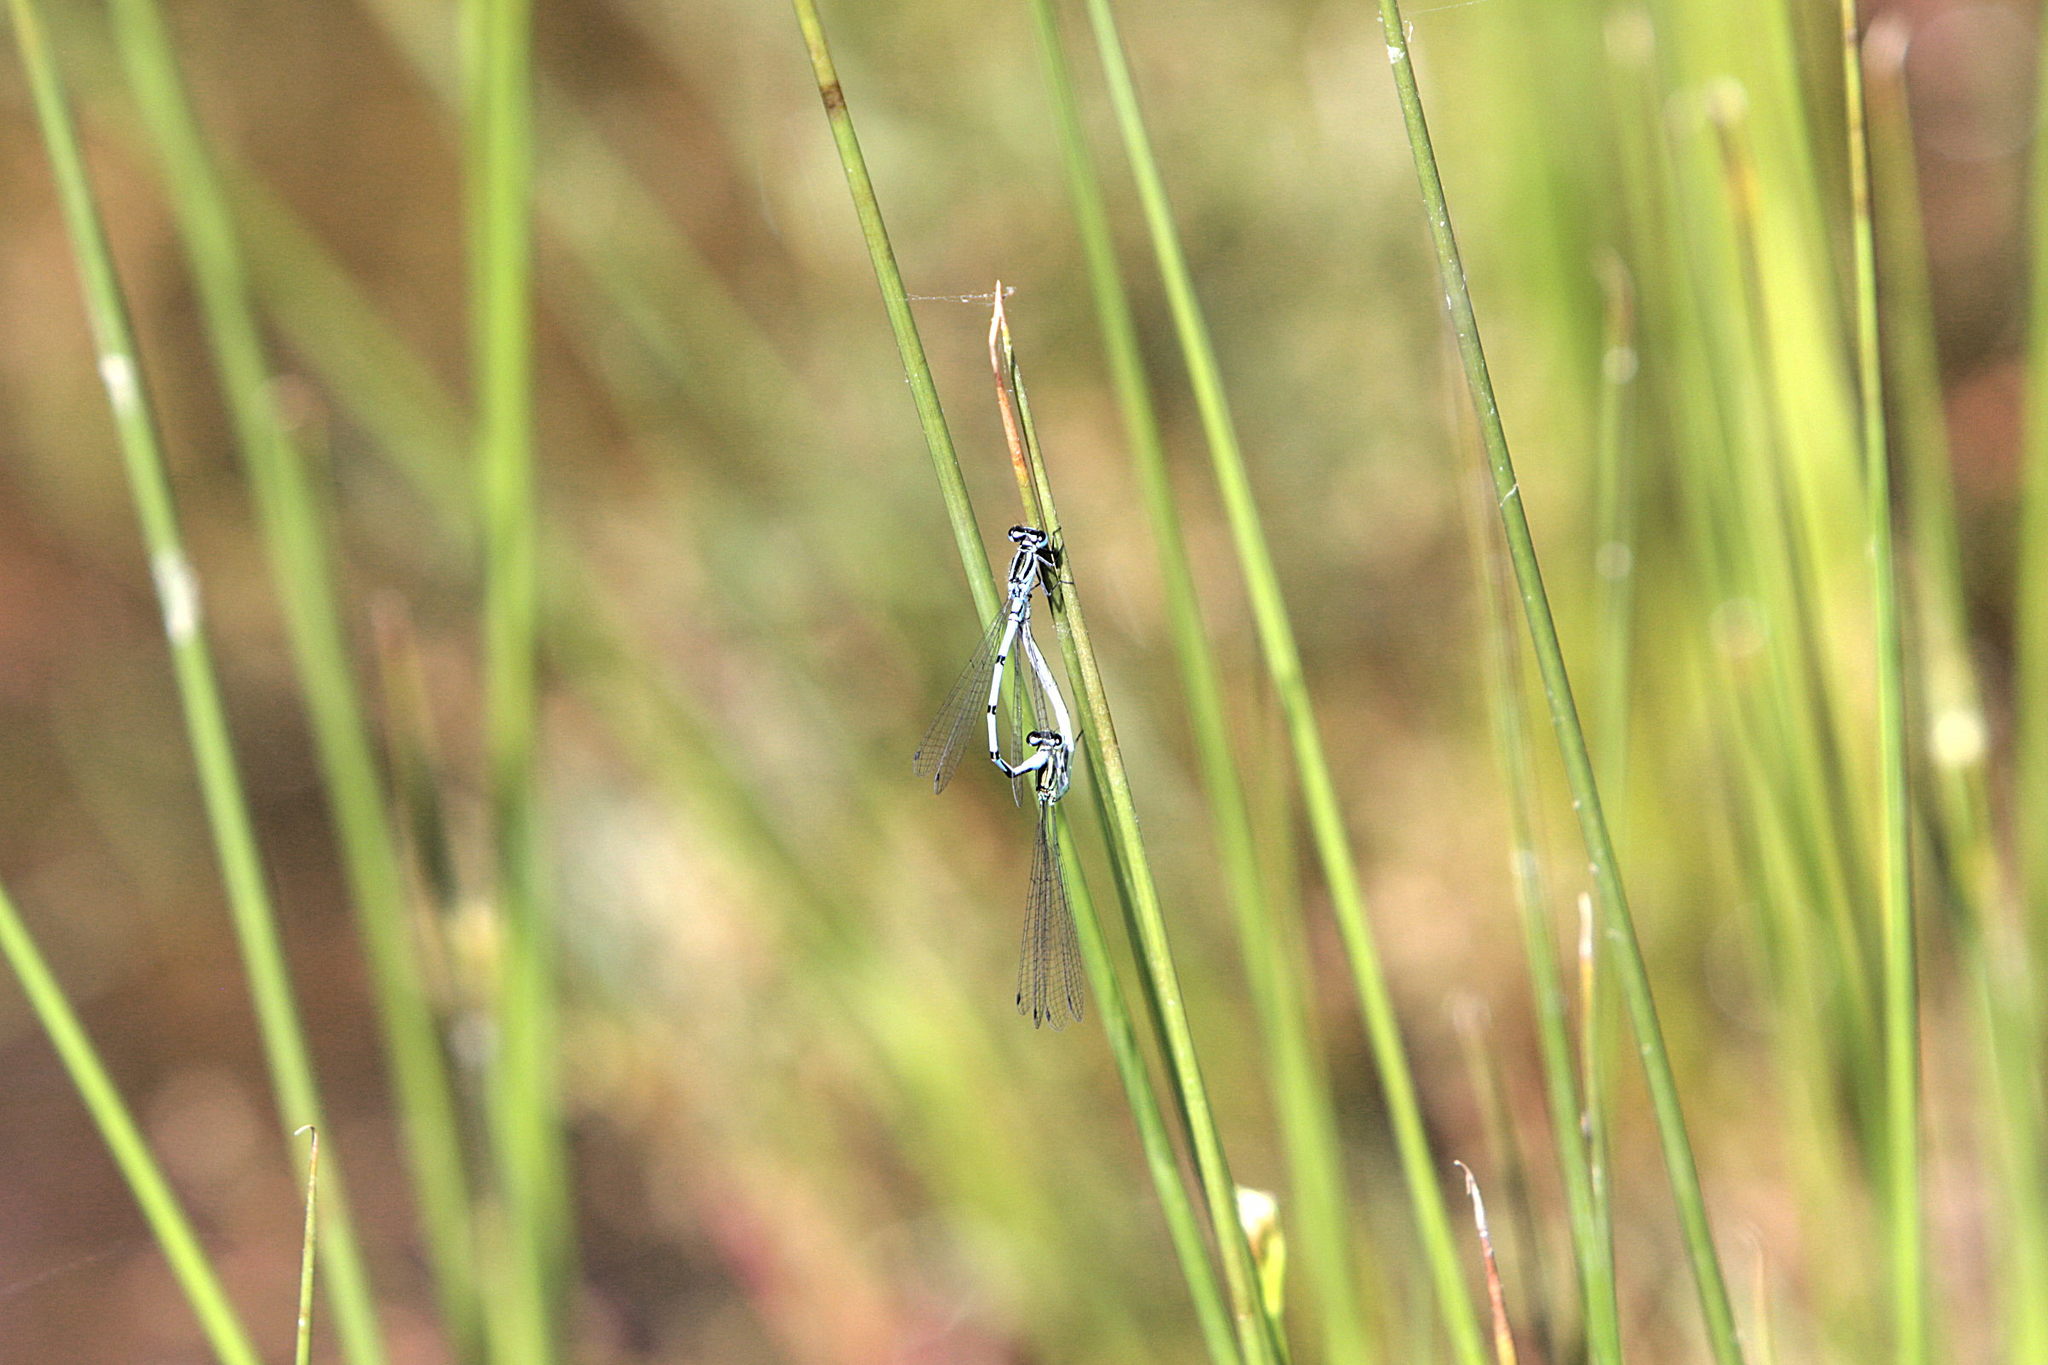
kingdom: Animalia
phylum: Arthropoda
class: Insecta
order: Odonata
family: Coenagrionidae
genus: Coenagrion
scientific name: Coenagrion puella
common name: Azure damselfly
